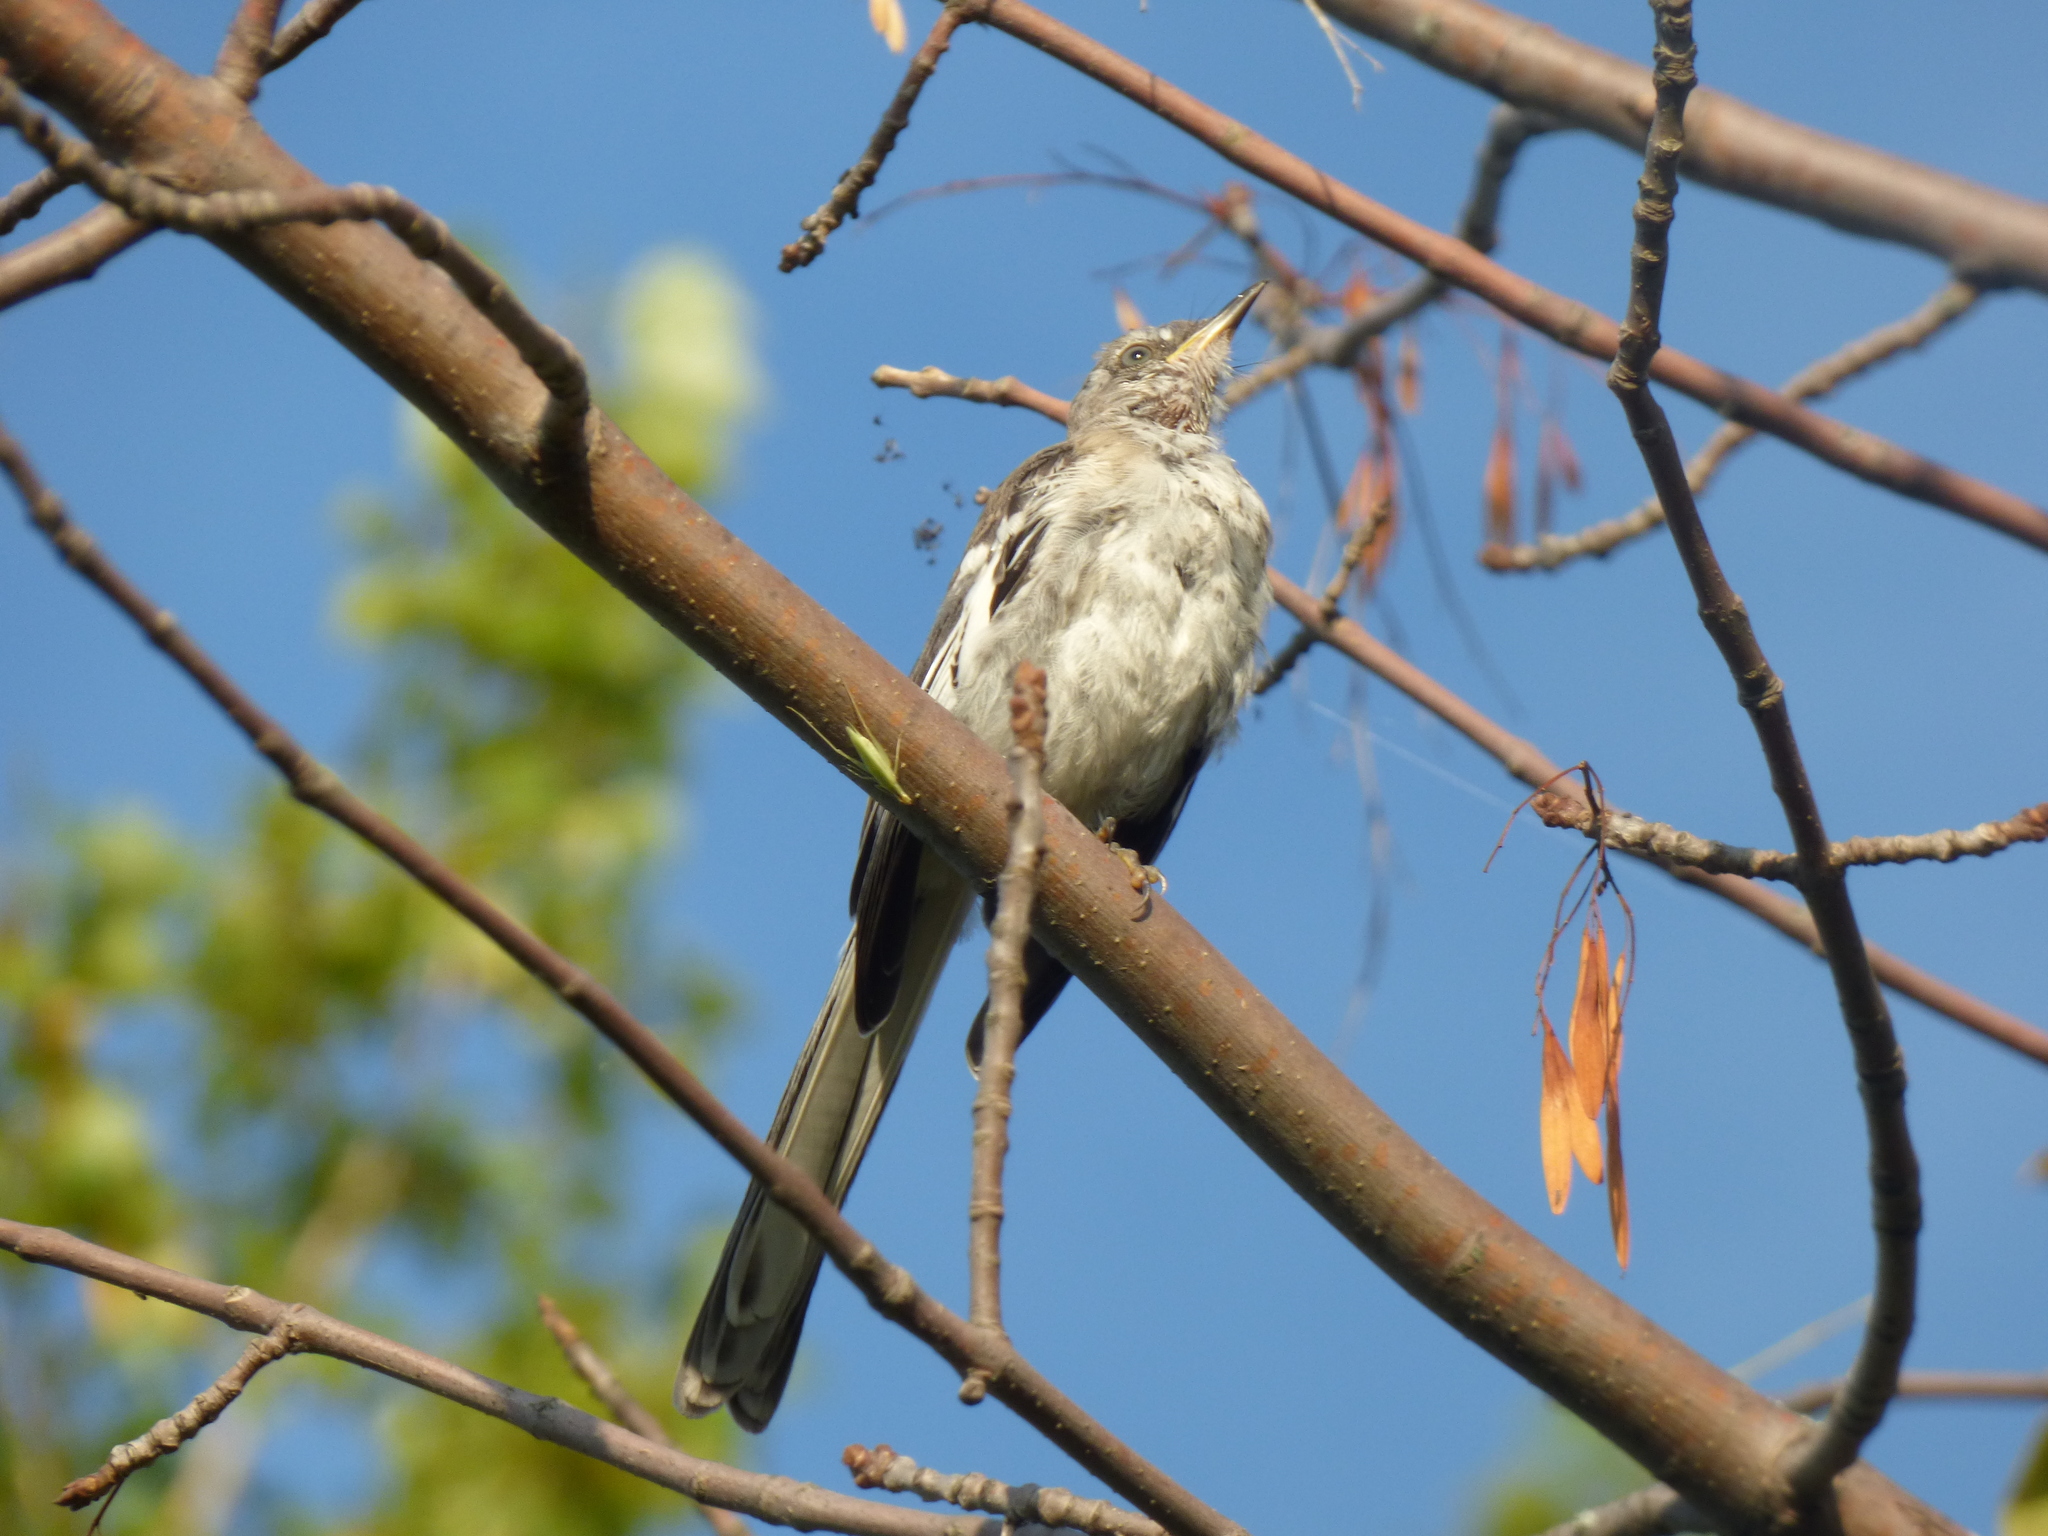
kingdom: Animalia
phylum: Chordata
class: Aves
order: Passeriformes
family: Mimidae
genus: Mimus
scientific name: Mimus polyglottos
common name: Northern mockingbird
